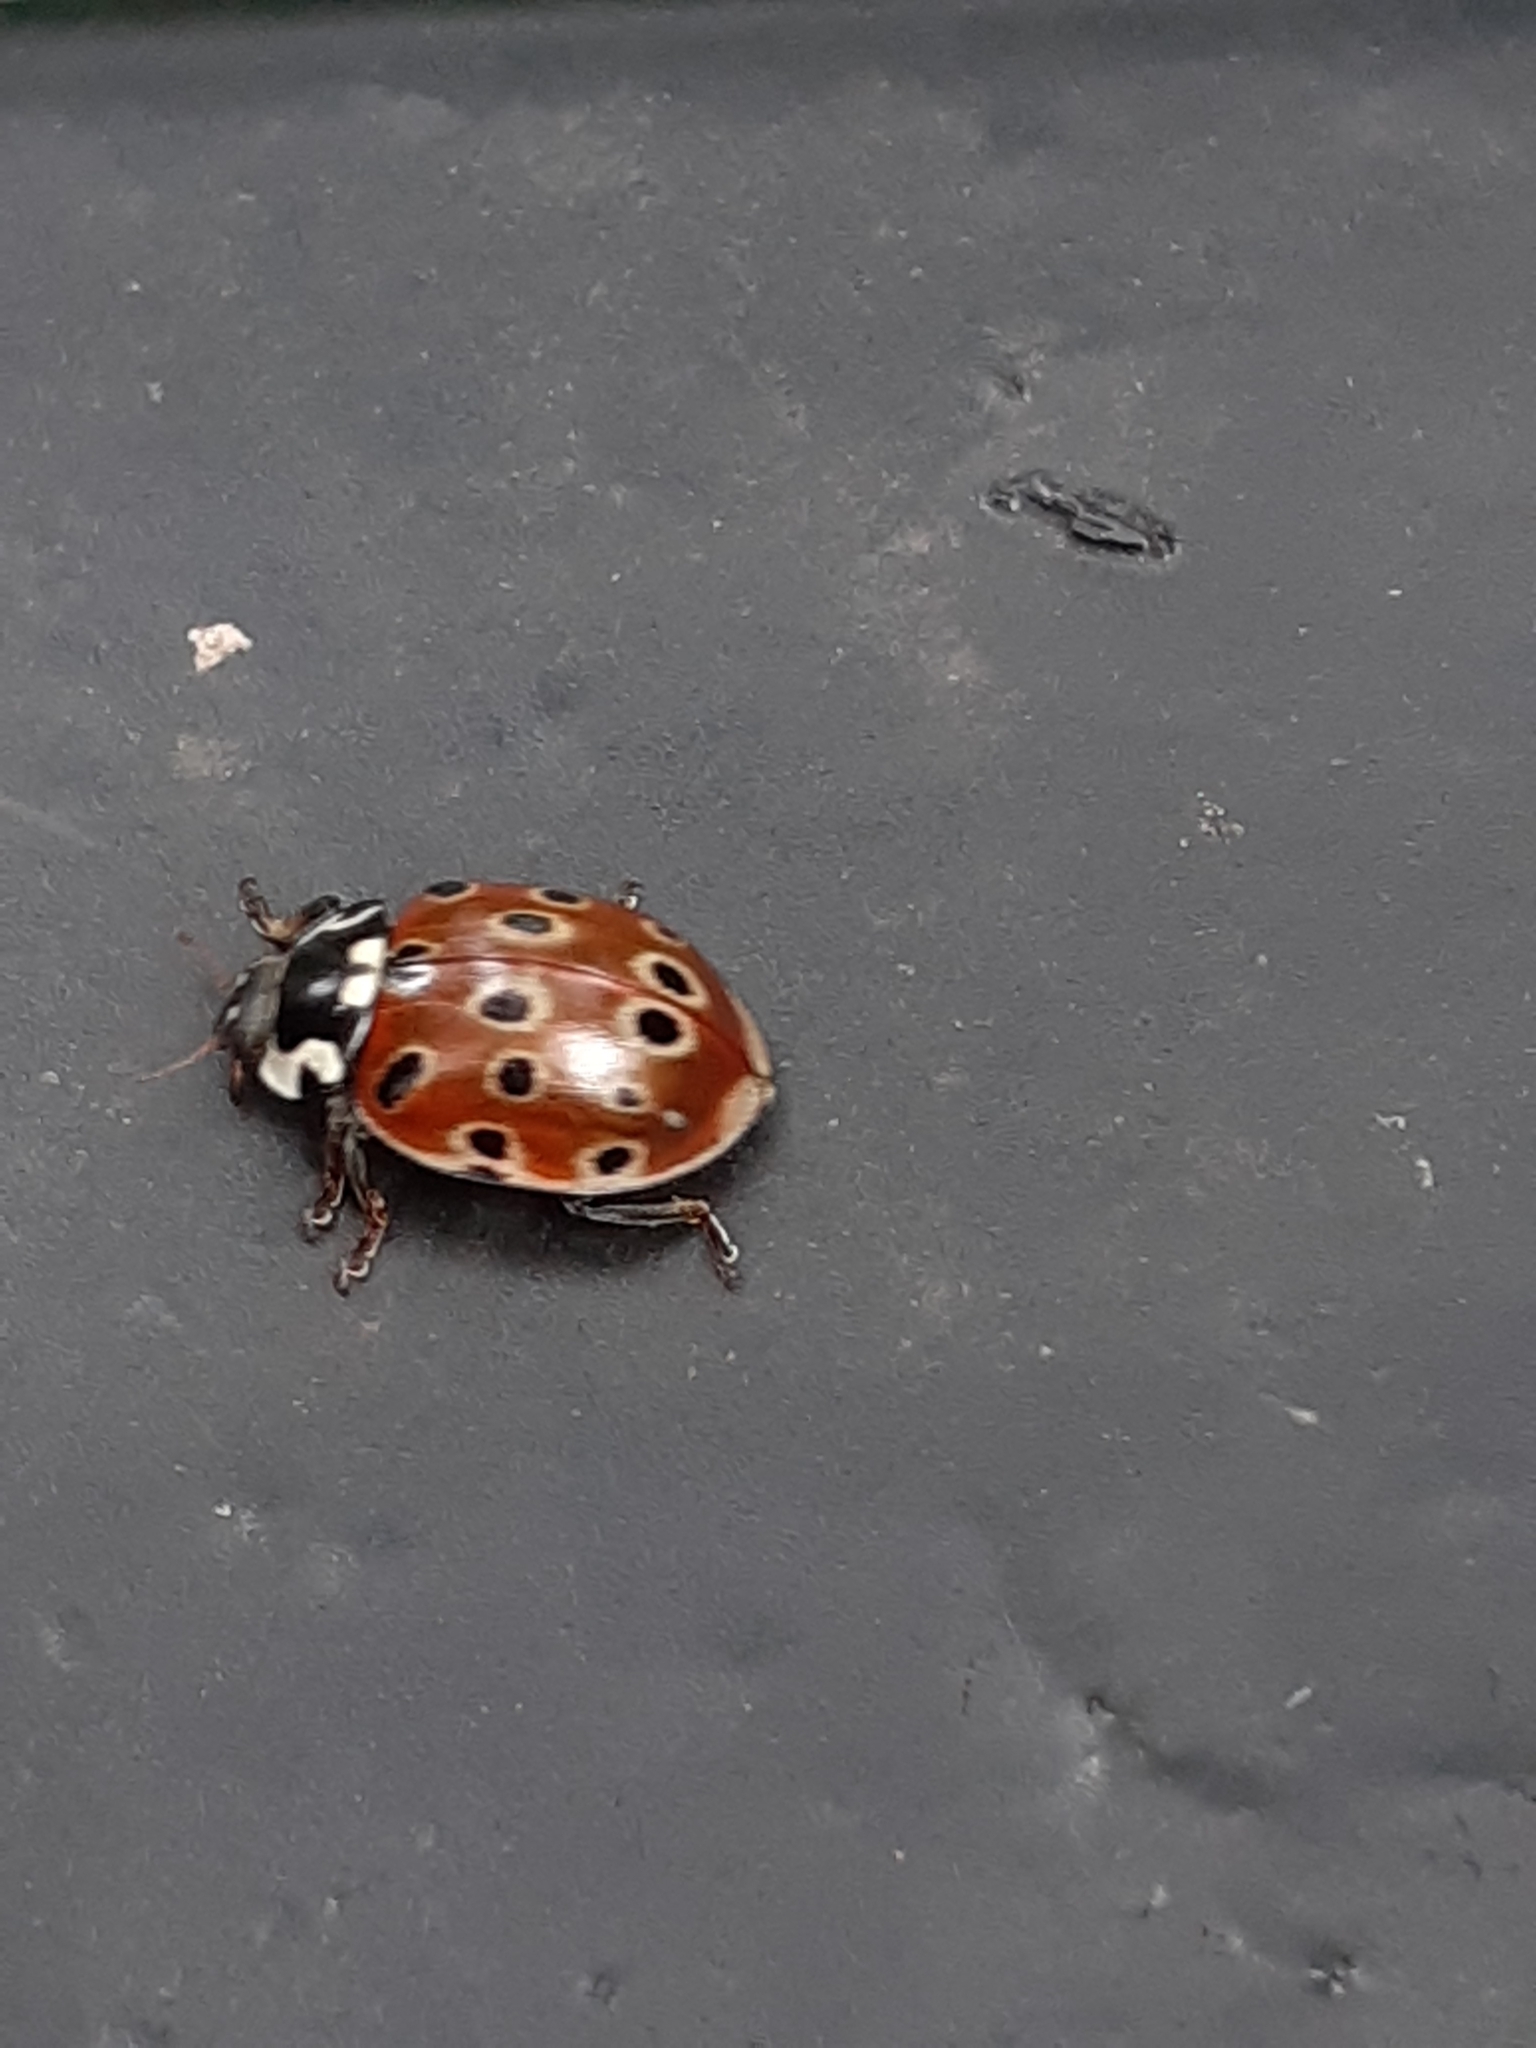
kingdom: Animalia
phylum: Arthropoda
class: Insecta
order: Coleoptera
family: Coccinellidae
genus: Anatis
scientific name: Anatis ocellata
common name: Eyed ladybird
